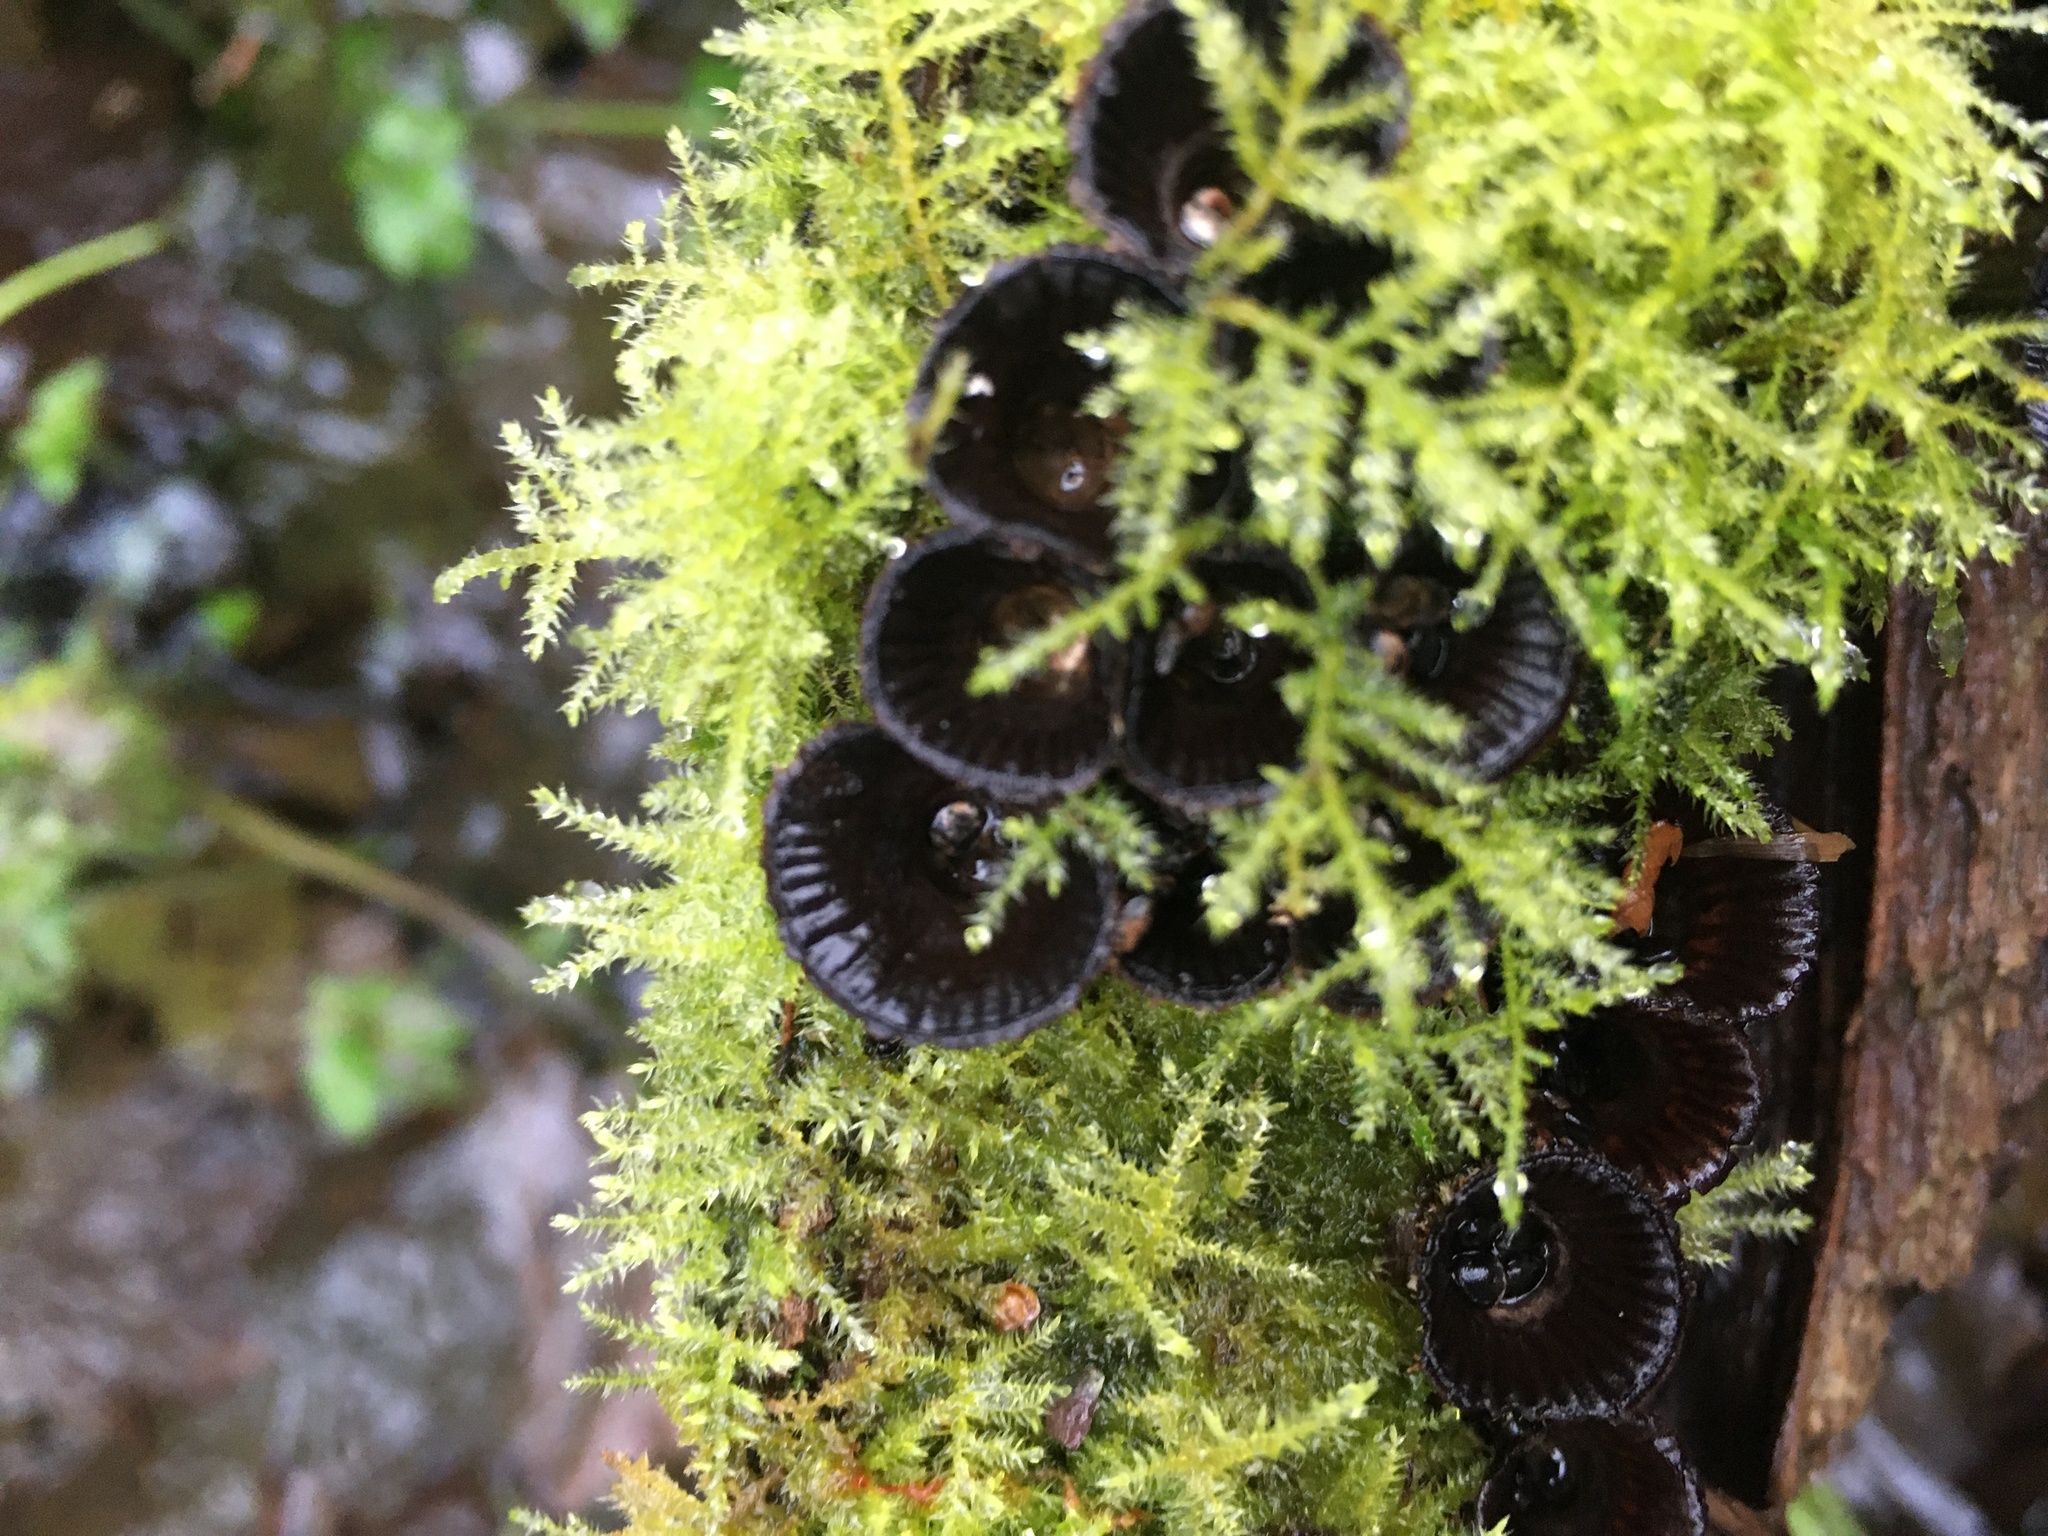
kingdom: Fungi
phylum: Basidiomycota
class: Agaricomycetes
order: Agaricales
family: Agaricaceae
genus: Cyathus
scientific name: Cyathus striatus
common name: Fluted bird's nest
